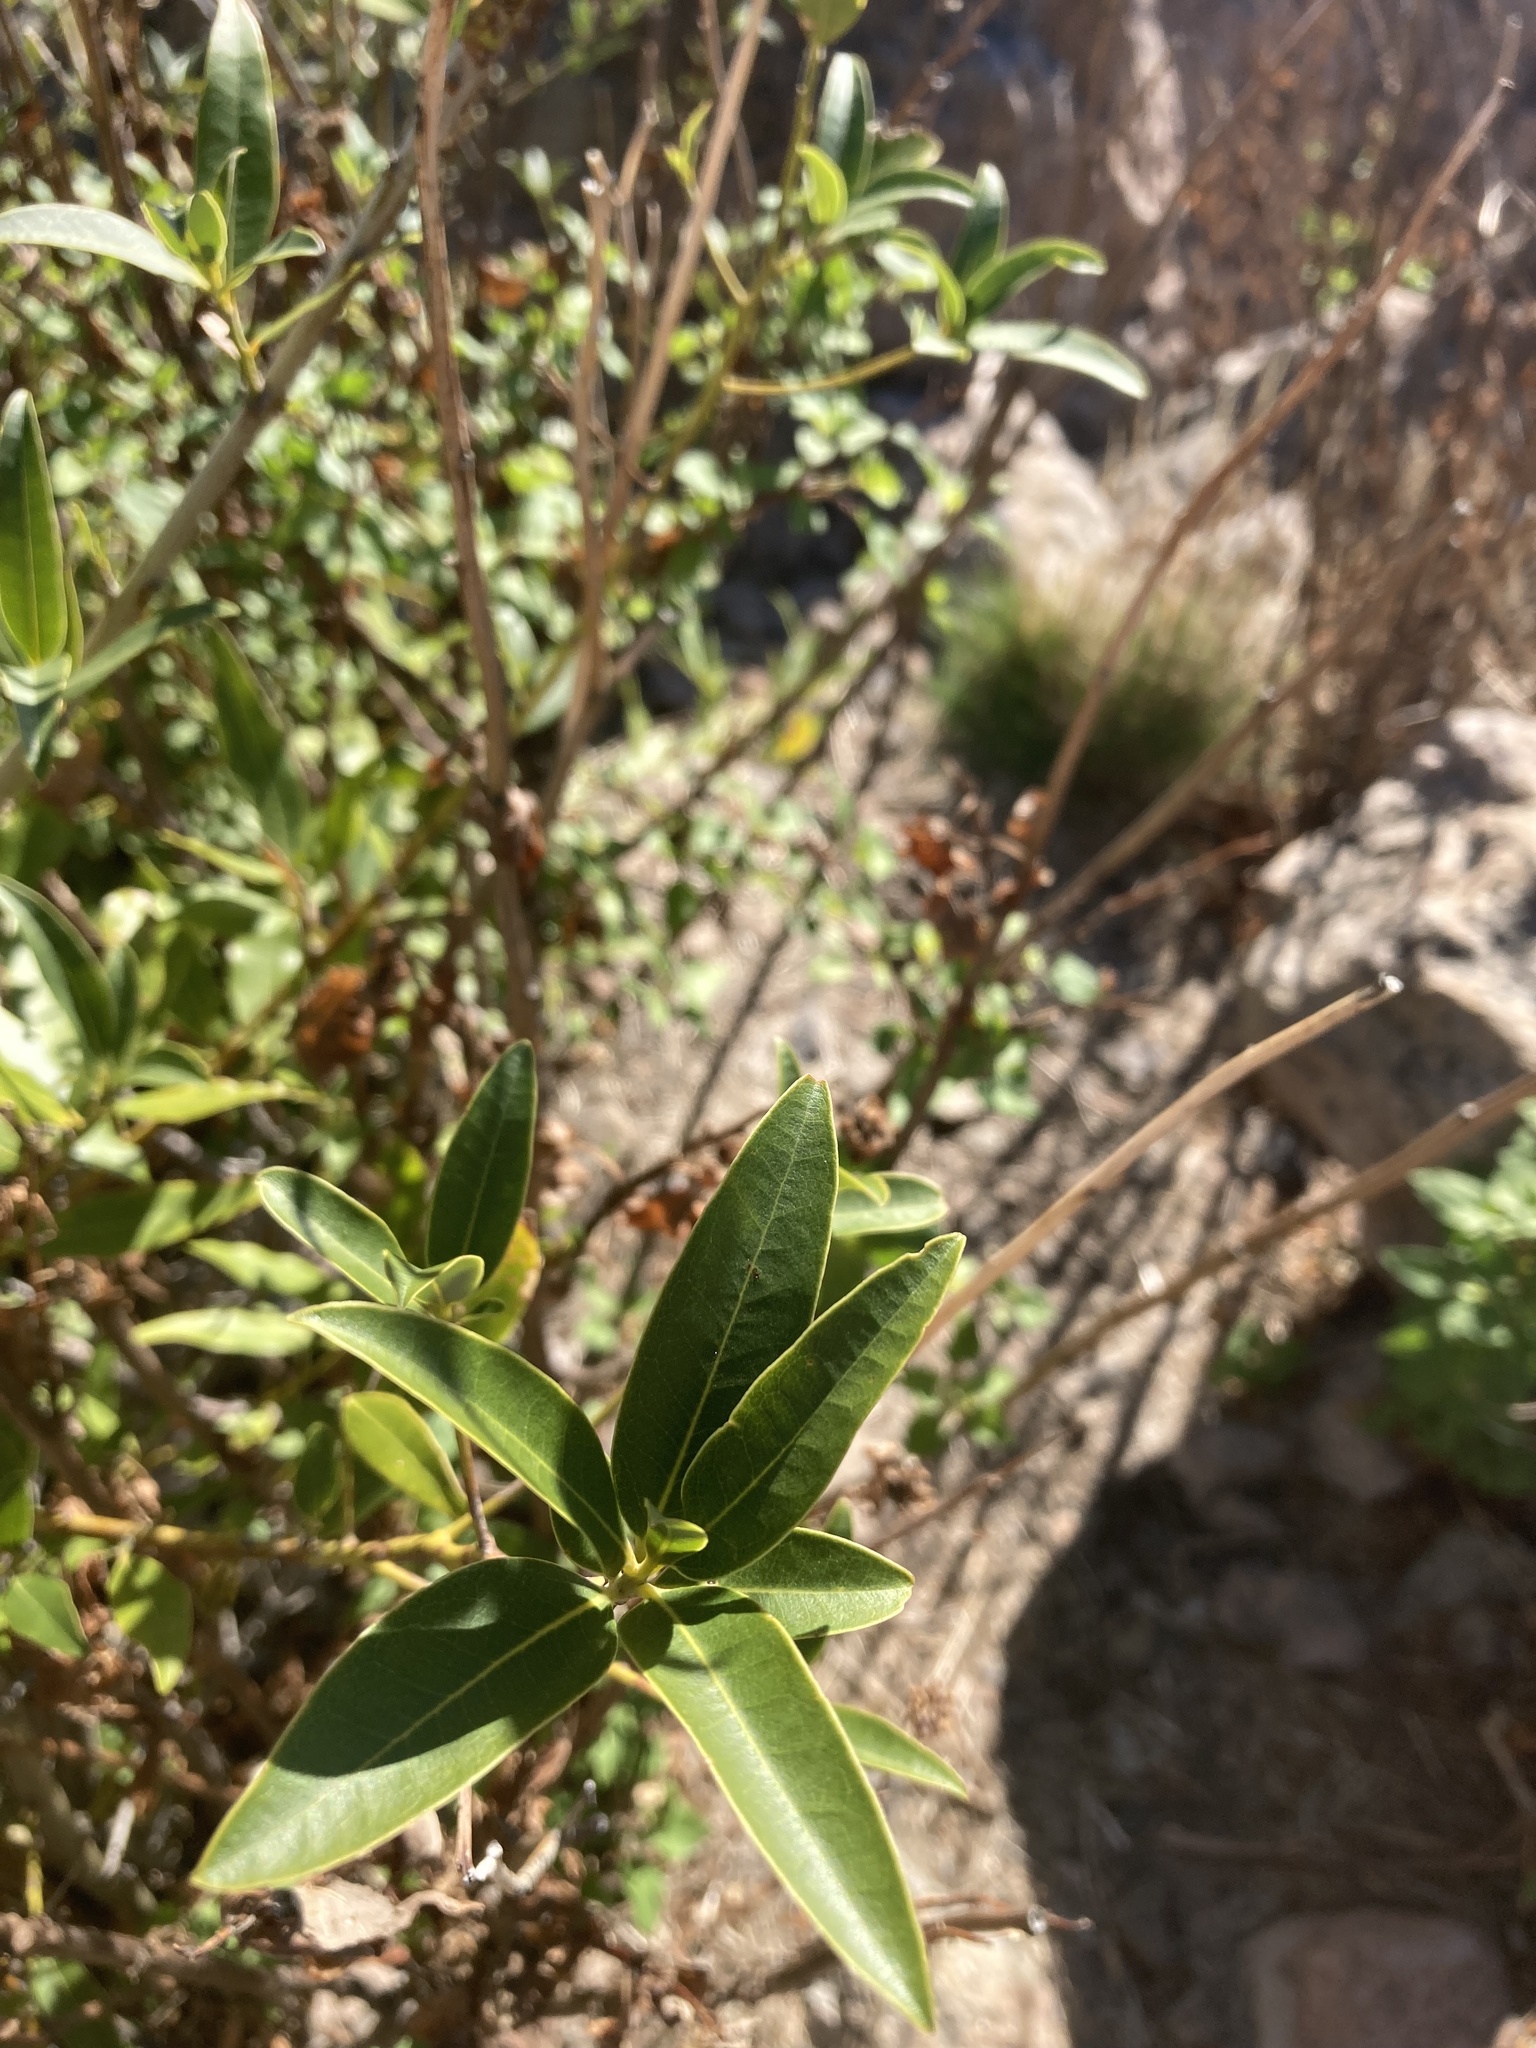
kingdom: Plantae
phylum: Tracheophyta
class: Magnoliopsida
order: Laurales
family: Lauraceae
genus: Umbellularia
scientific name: Umbellularia californica
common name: California bay
